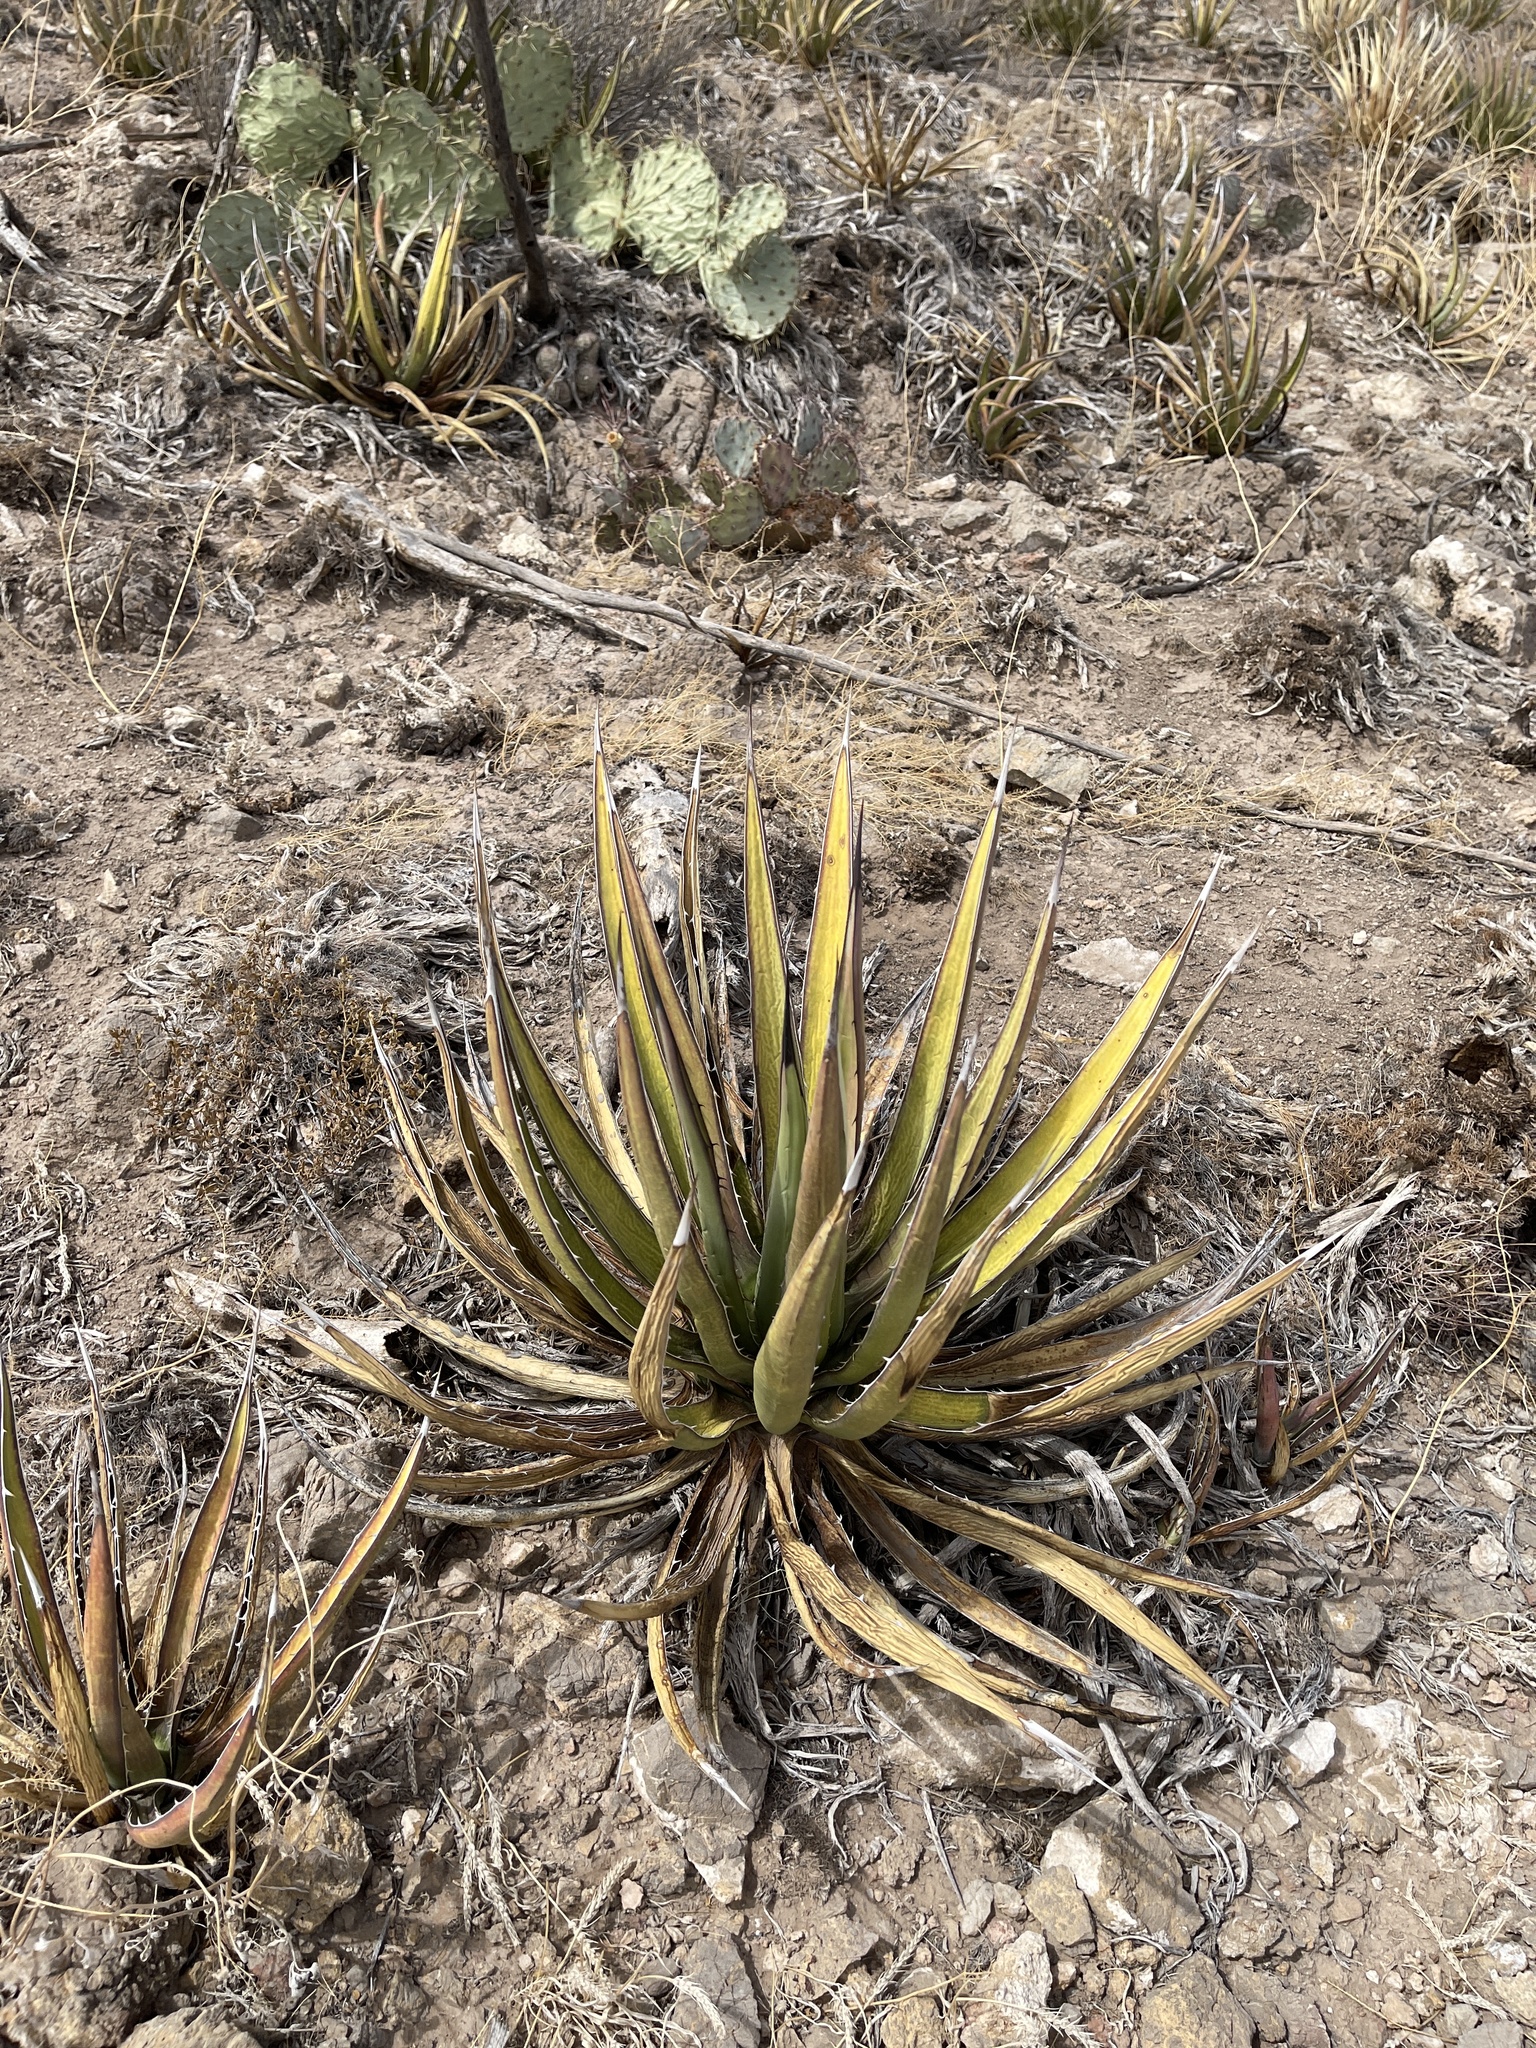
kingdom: Plantae
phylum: Tracheophyta
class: Liliopsida
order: Asparagales
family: Asparagaceae
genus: Agave
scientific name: Agave lechuguilla
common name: Lecheguilla agave
